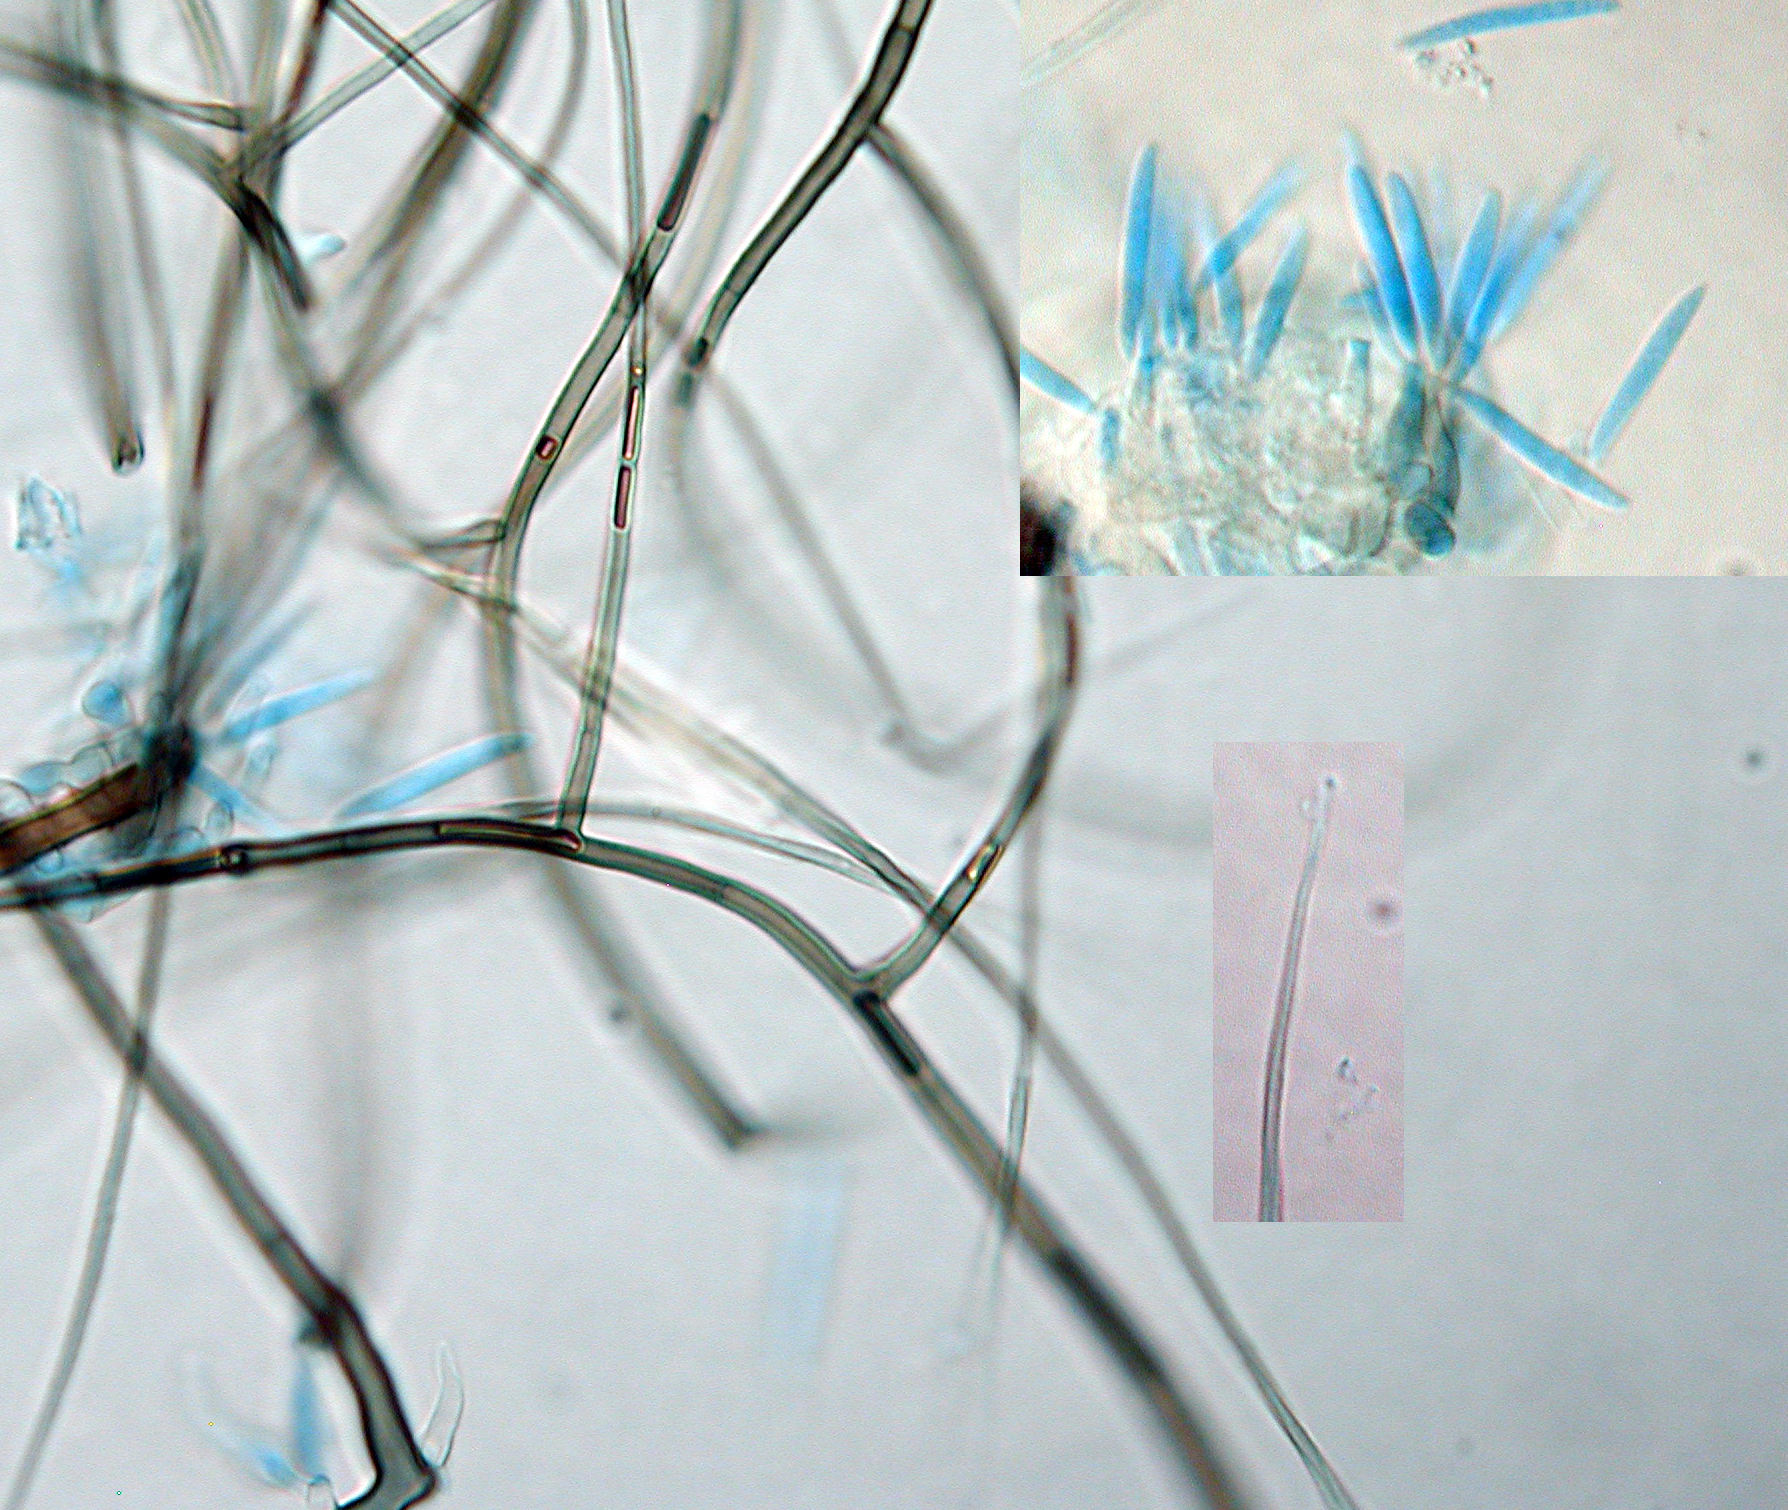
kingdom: Fungi
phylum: Ascomycota
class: Sordariomycetes
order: Xylariales
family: Microdochiaceae
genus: Gyrothrix
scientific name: Gyrothrix grisea
